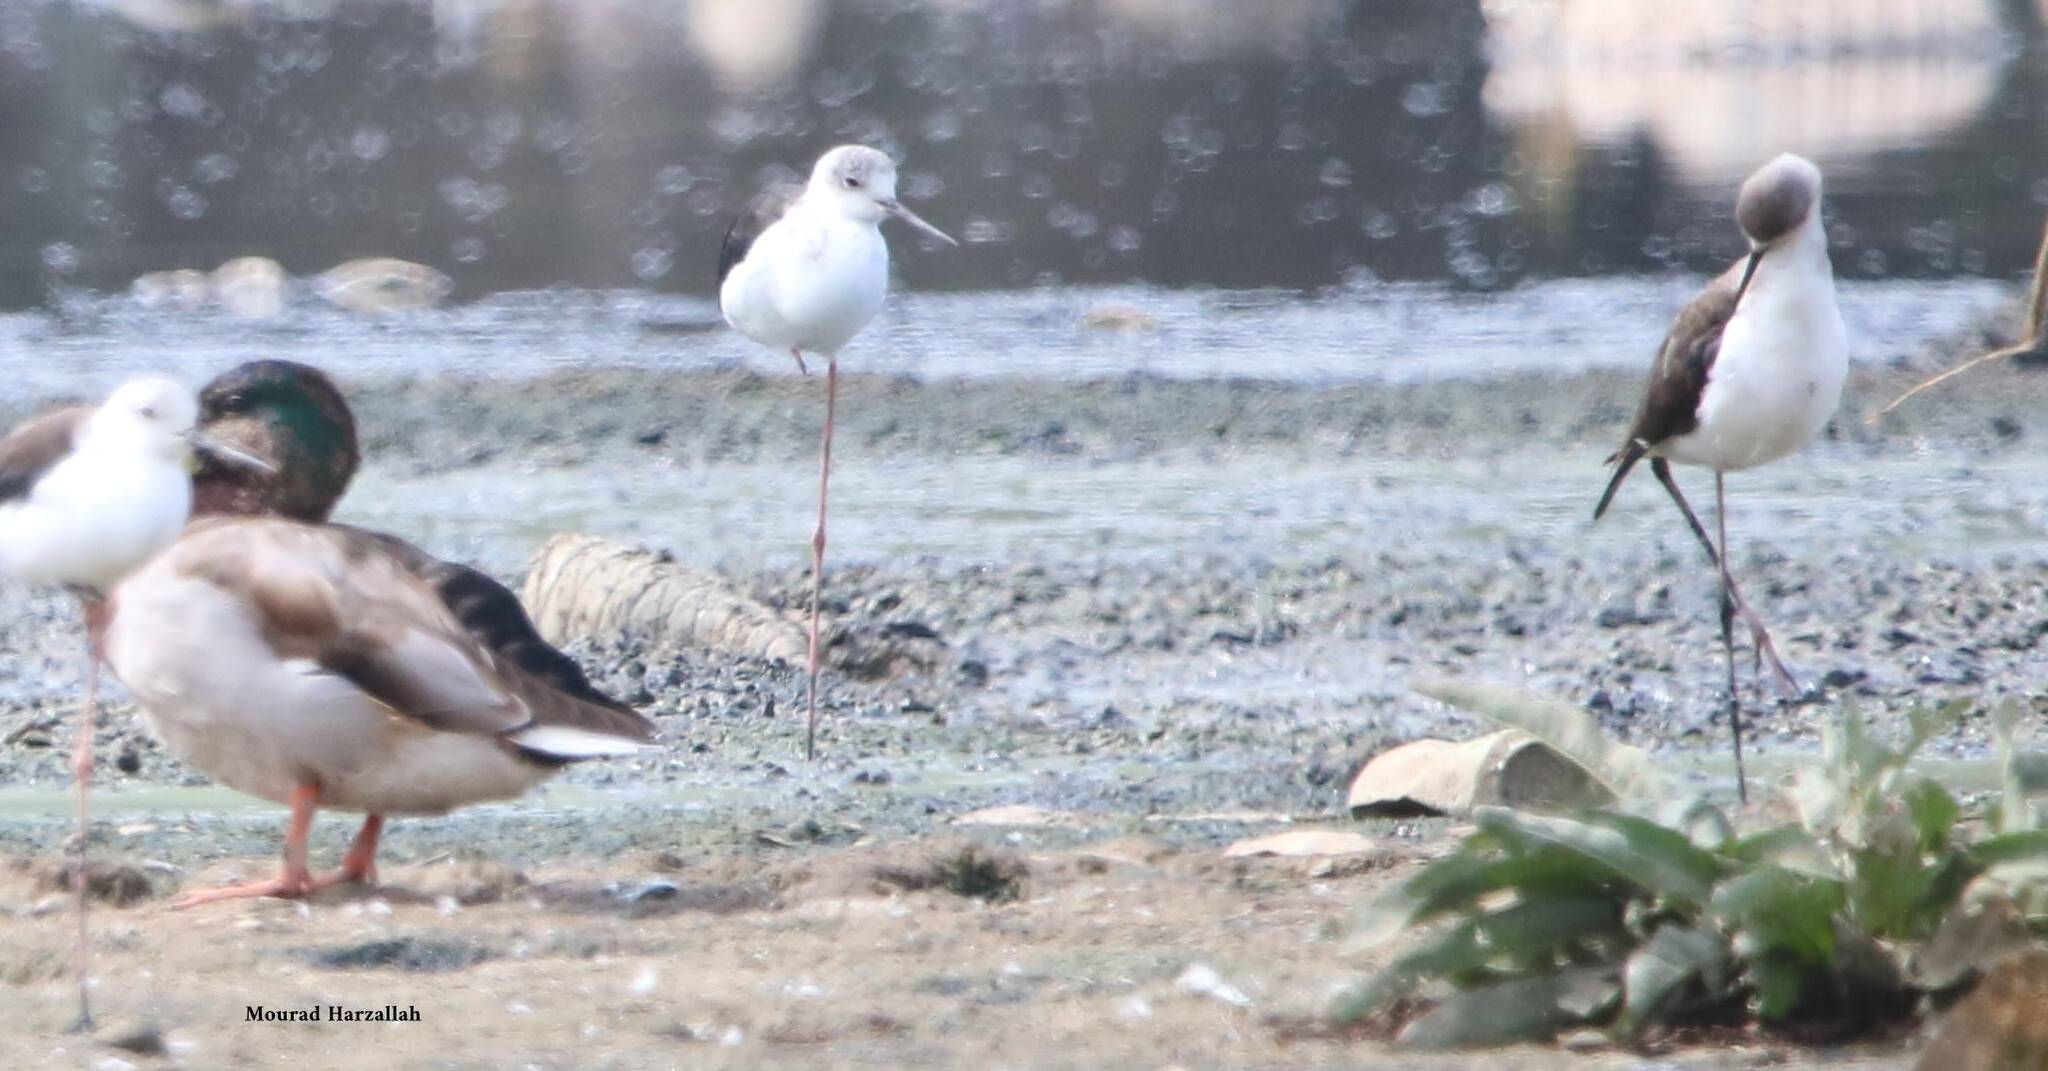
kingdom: Animalia
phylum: Chordata
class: Aves
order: Charadriiformes
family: Recurvirostridae
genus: Himantopus
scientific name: Himantopus himantopus
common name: Black-winged stilt
